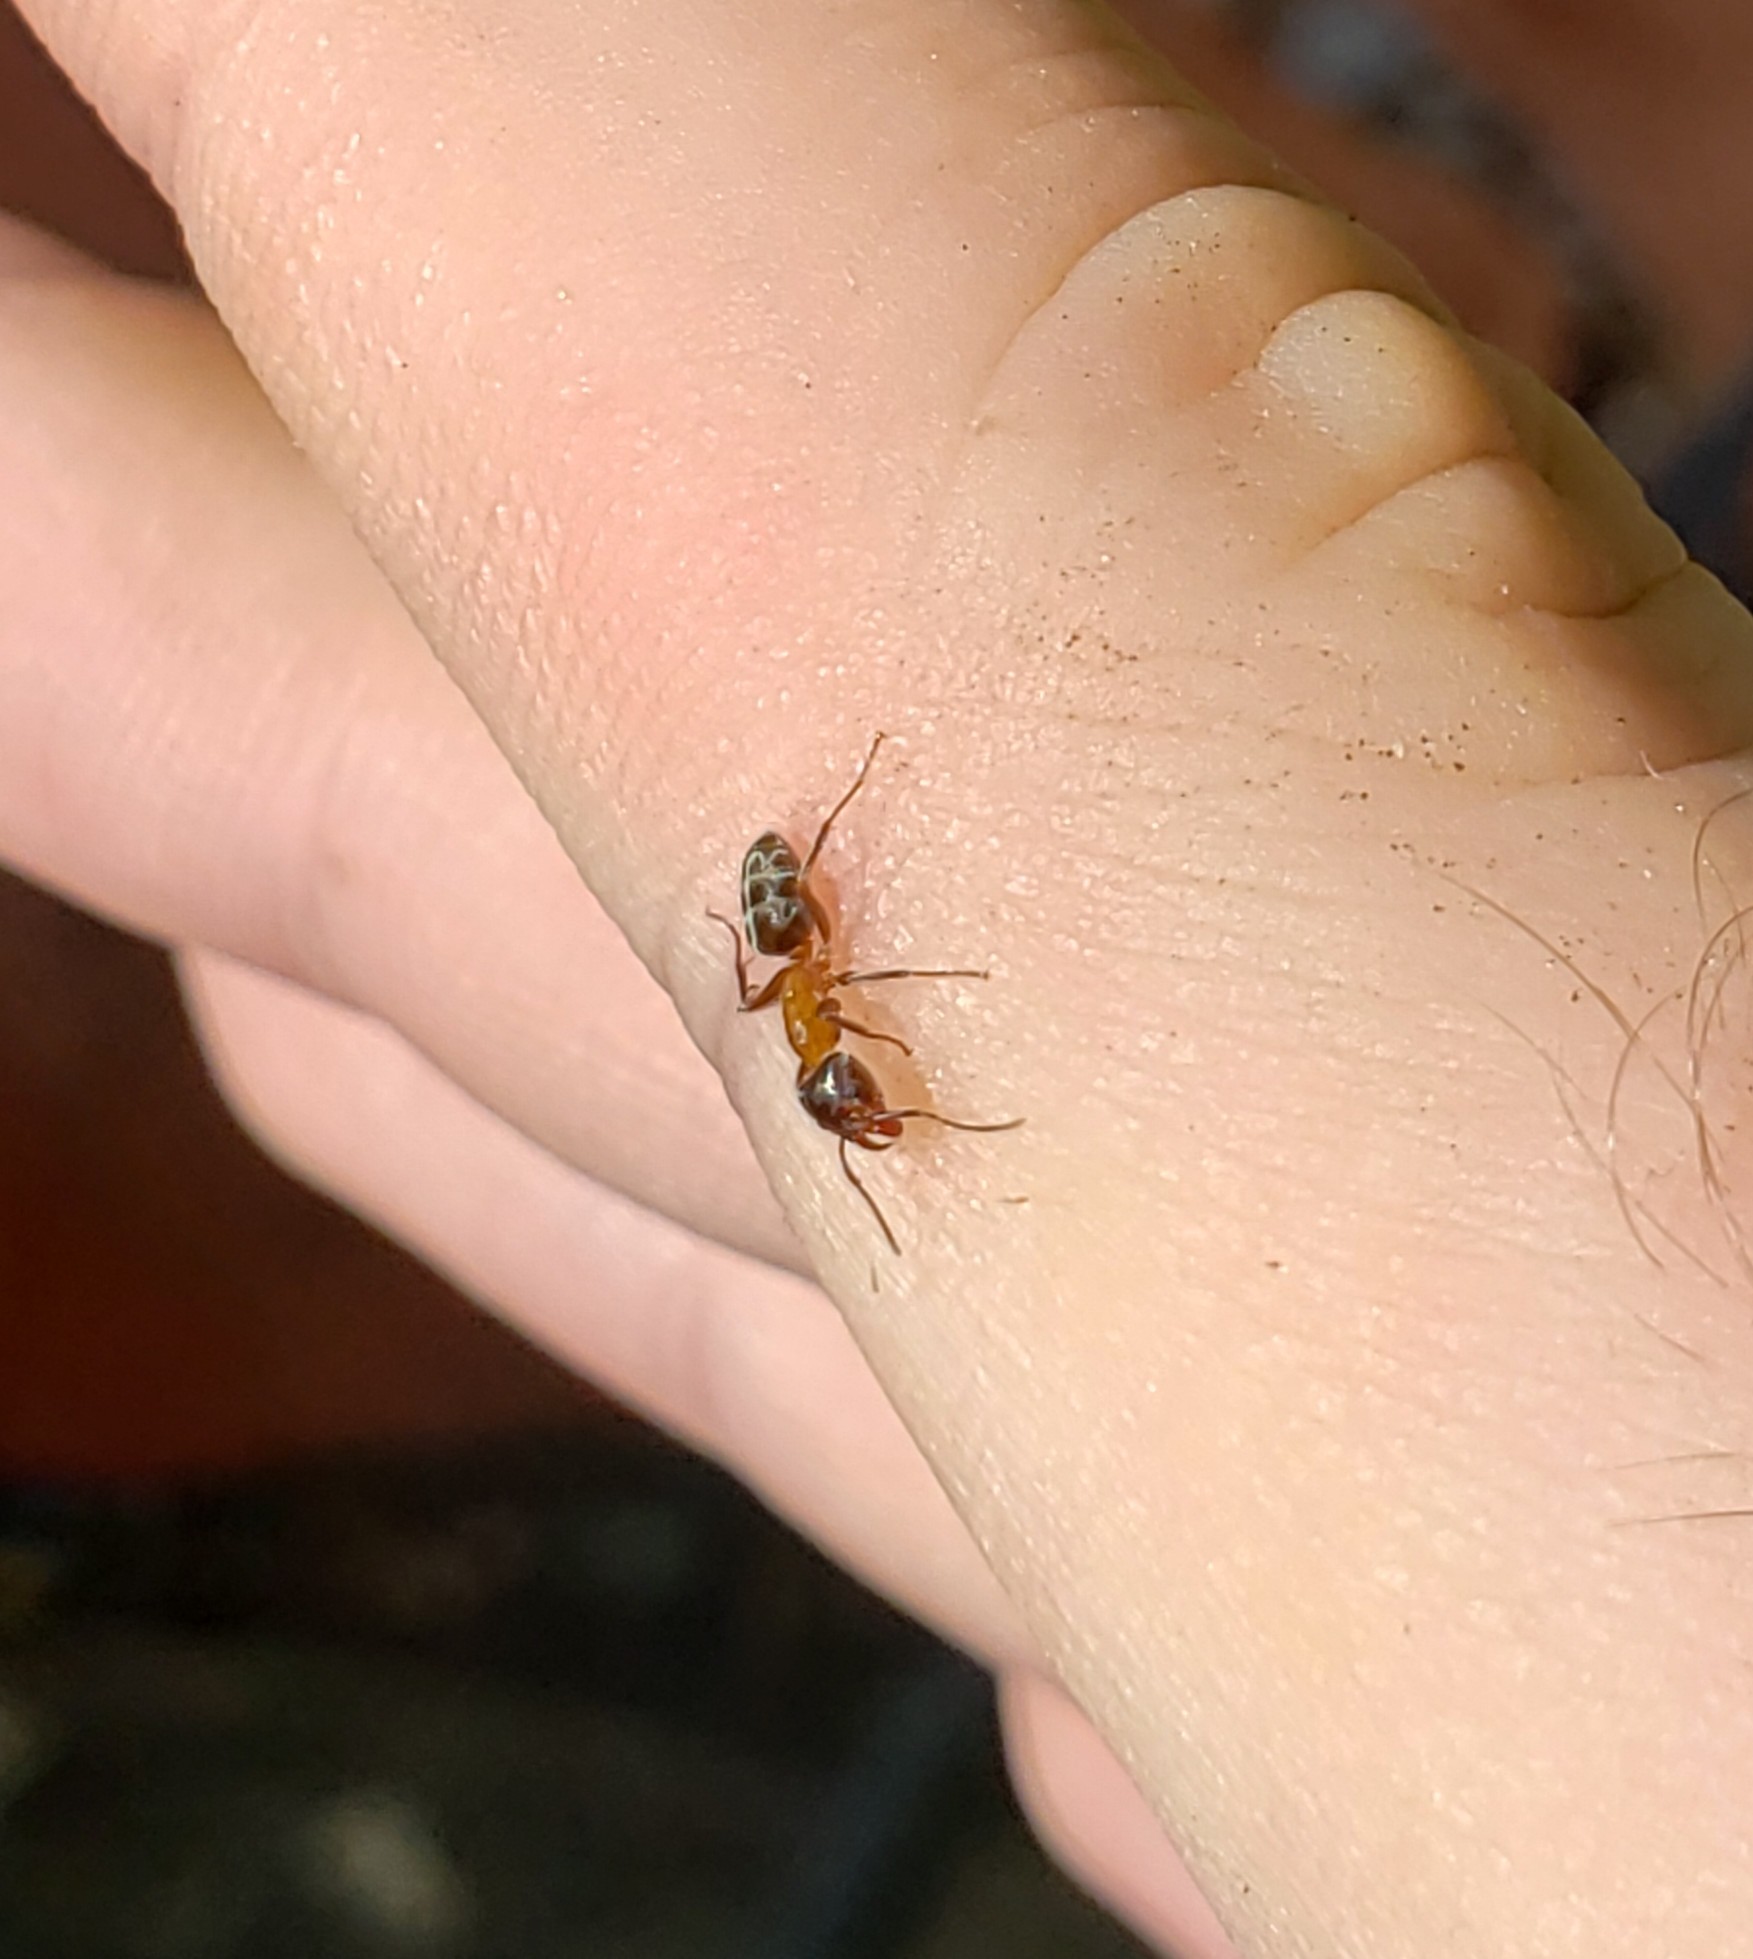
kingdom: Animalia
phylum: Arthropoda
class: Insecta
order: Hymenoptera
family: Formicidae
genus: Liometopum
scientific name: Liometopum occidentale
